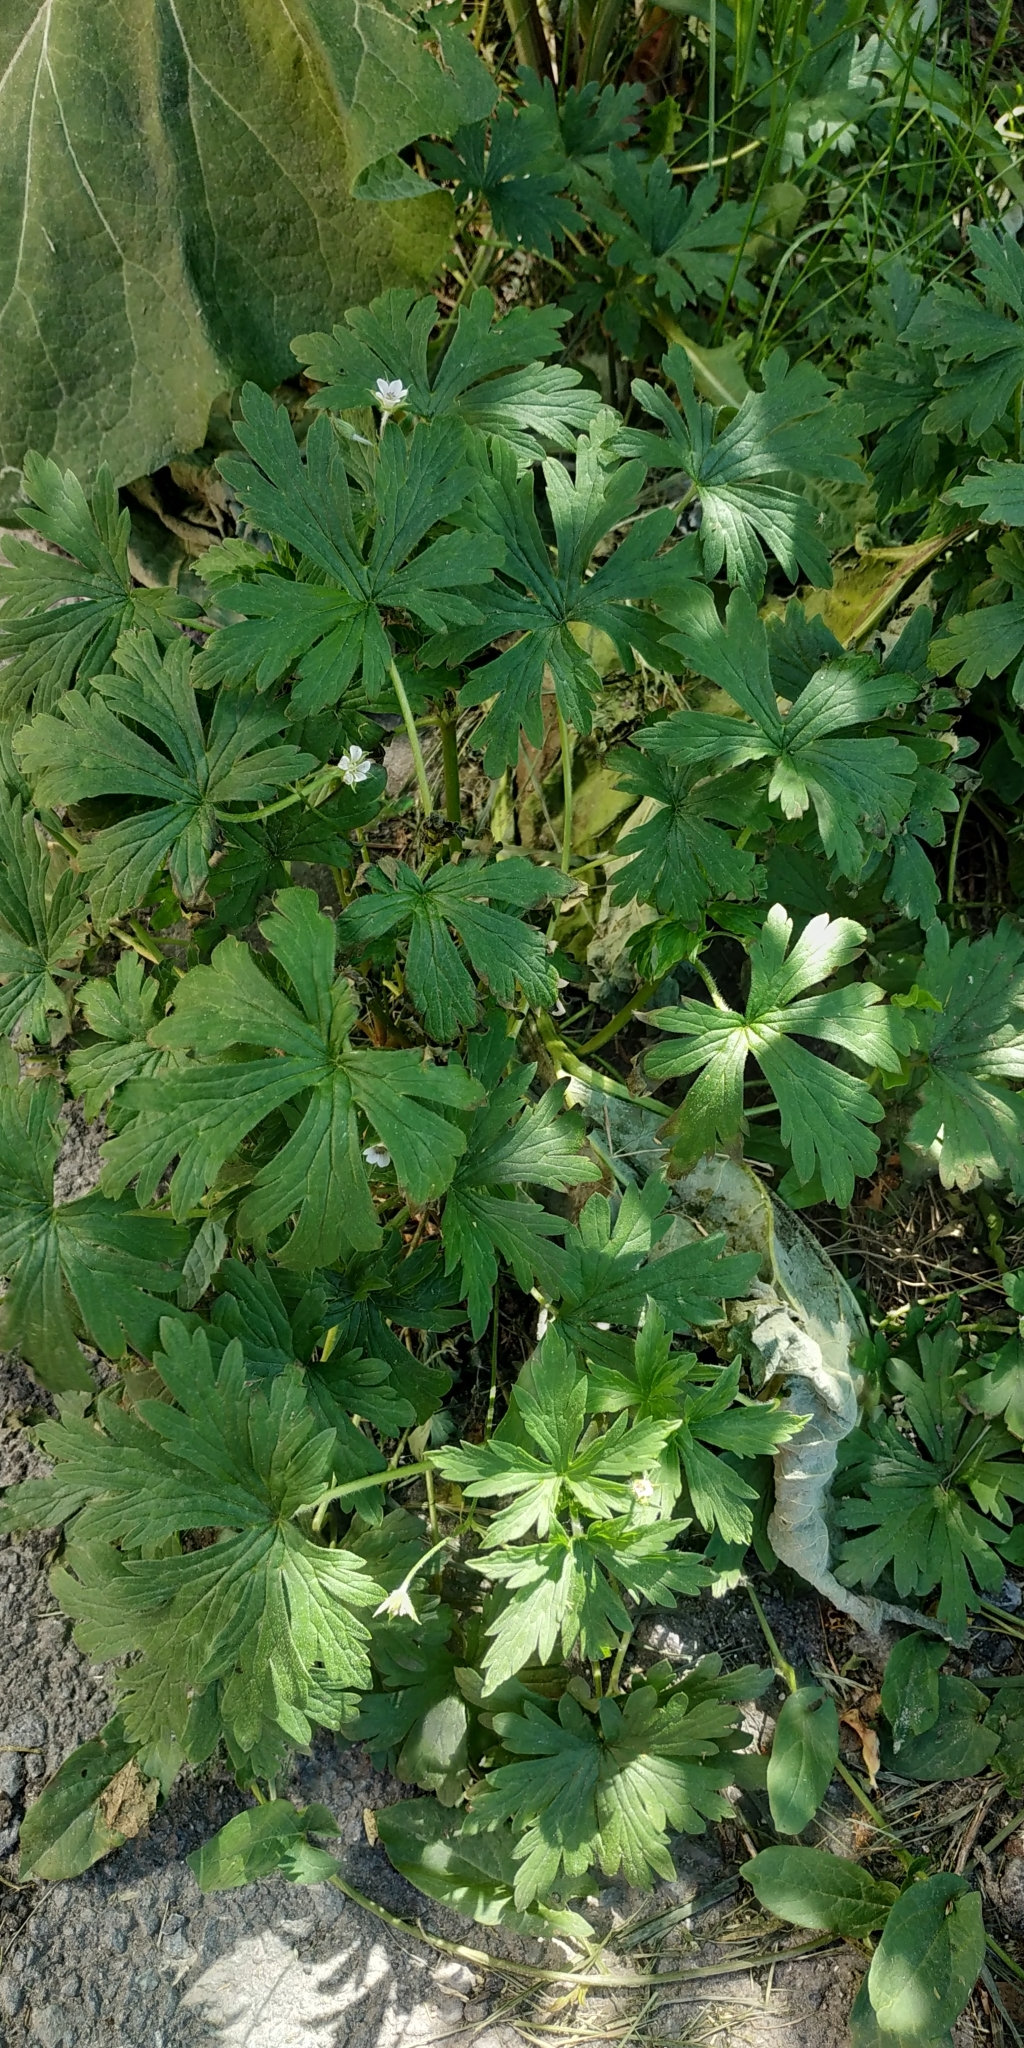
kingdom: Plantae
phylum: Tracheophyta
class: Magnoliopsida
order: Geraniales
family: Geraniaceae
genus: Geranium
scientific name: Geranium sibiricum
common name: Siberian crane's-bill
